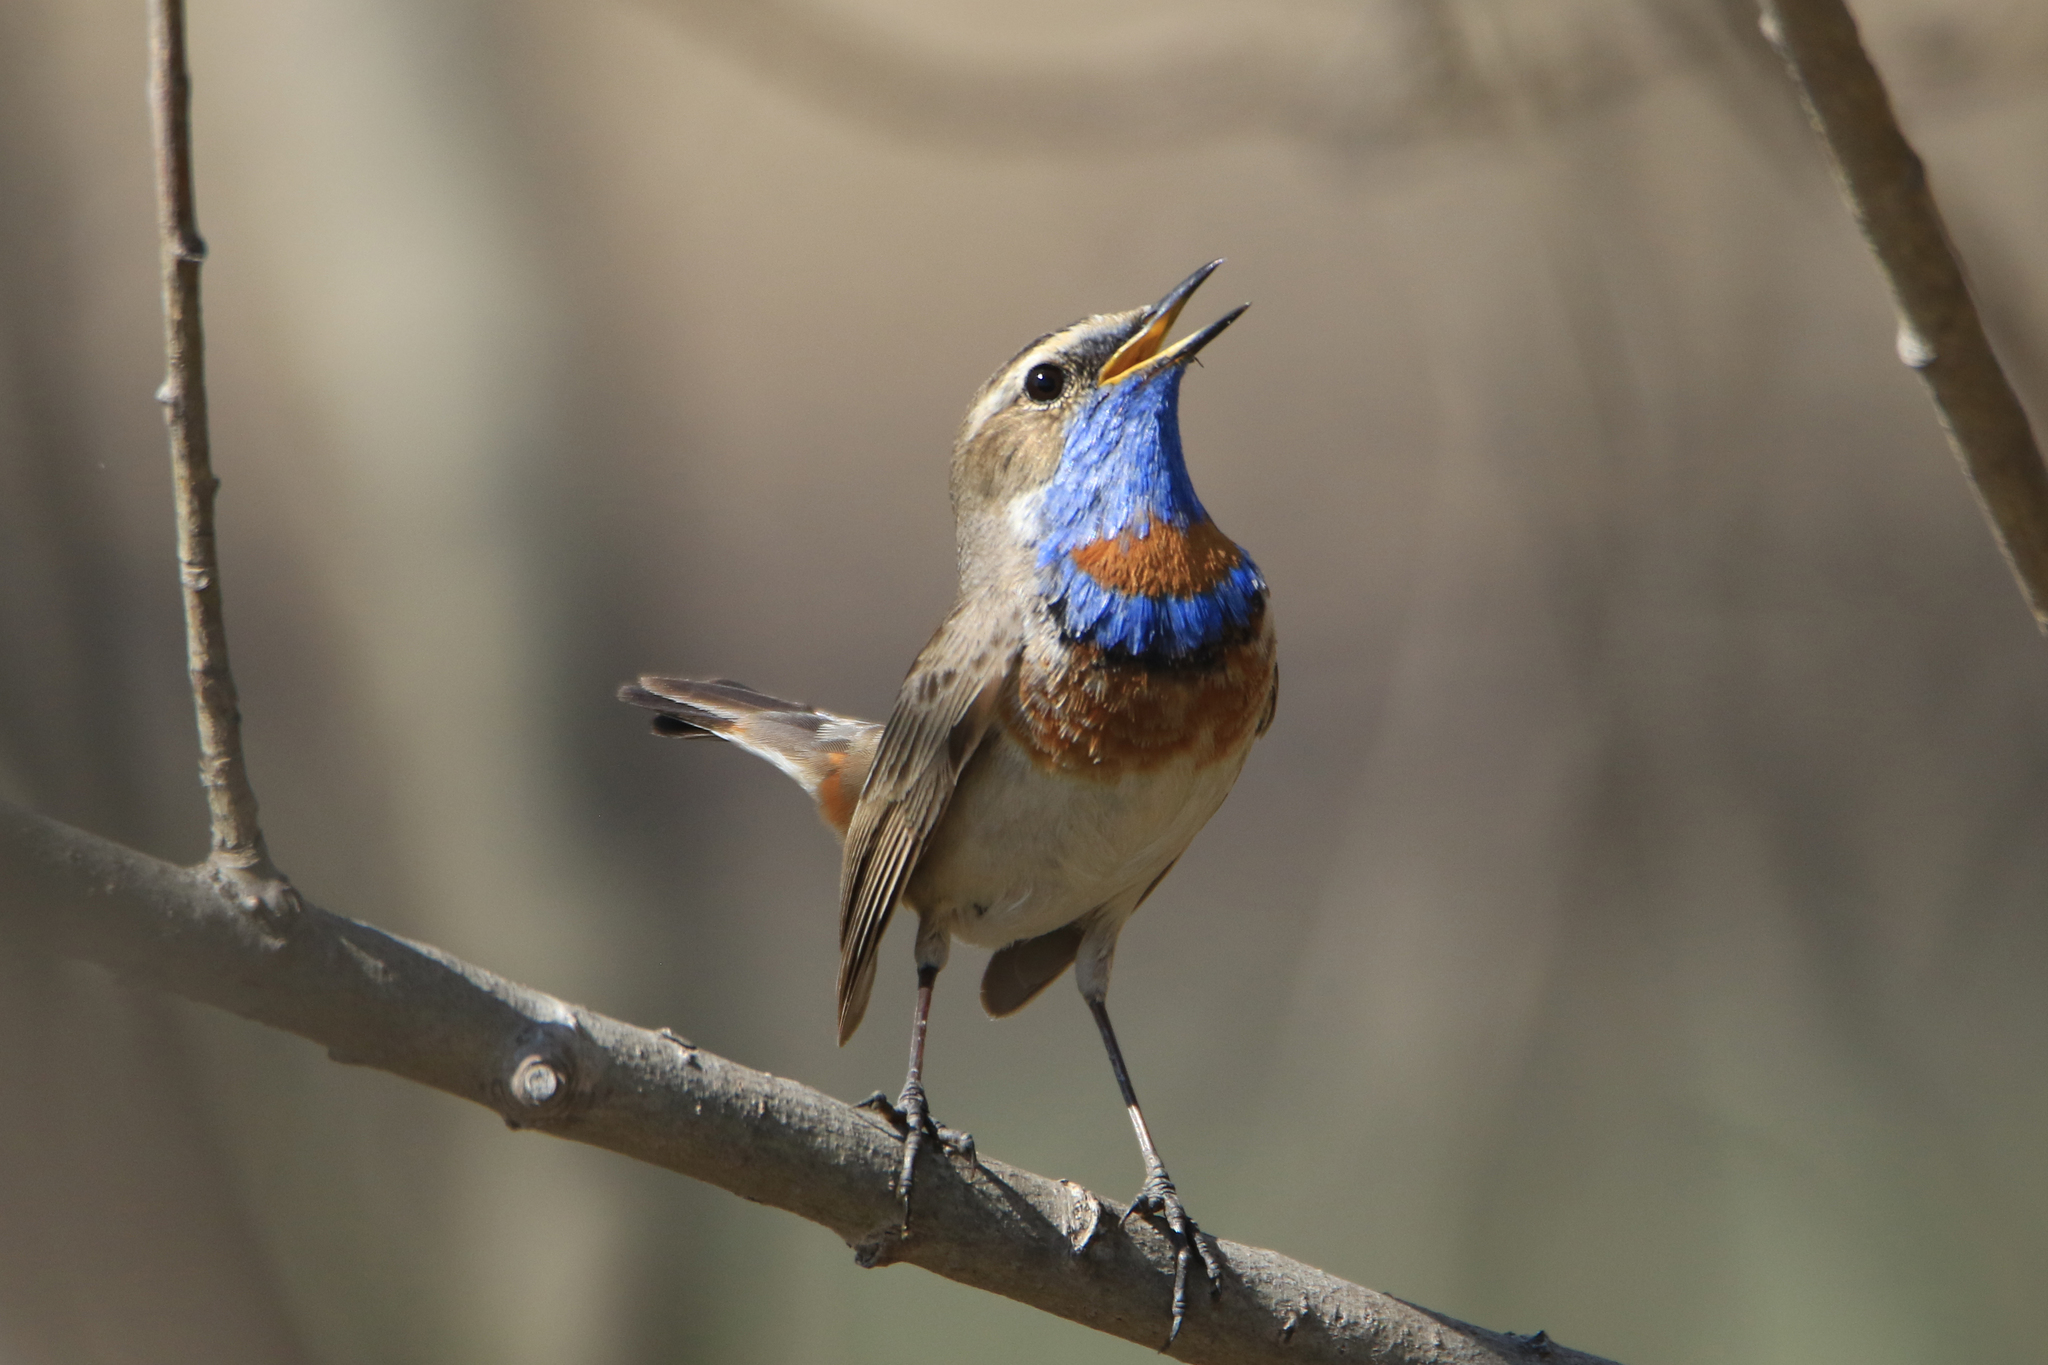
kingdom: Animalia
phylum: Chordata
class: Aves
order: Passeriformes
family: Muscicapidae
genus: Luscinia
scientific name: Luscinia svecica
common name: Bluethroat
